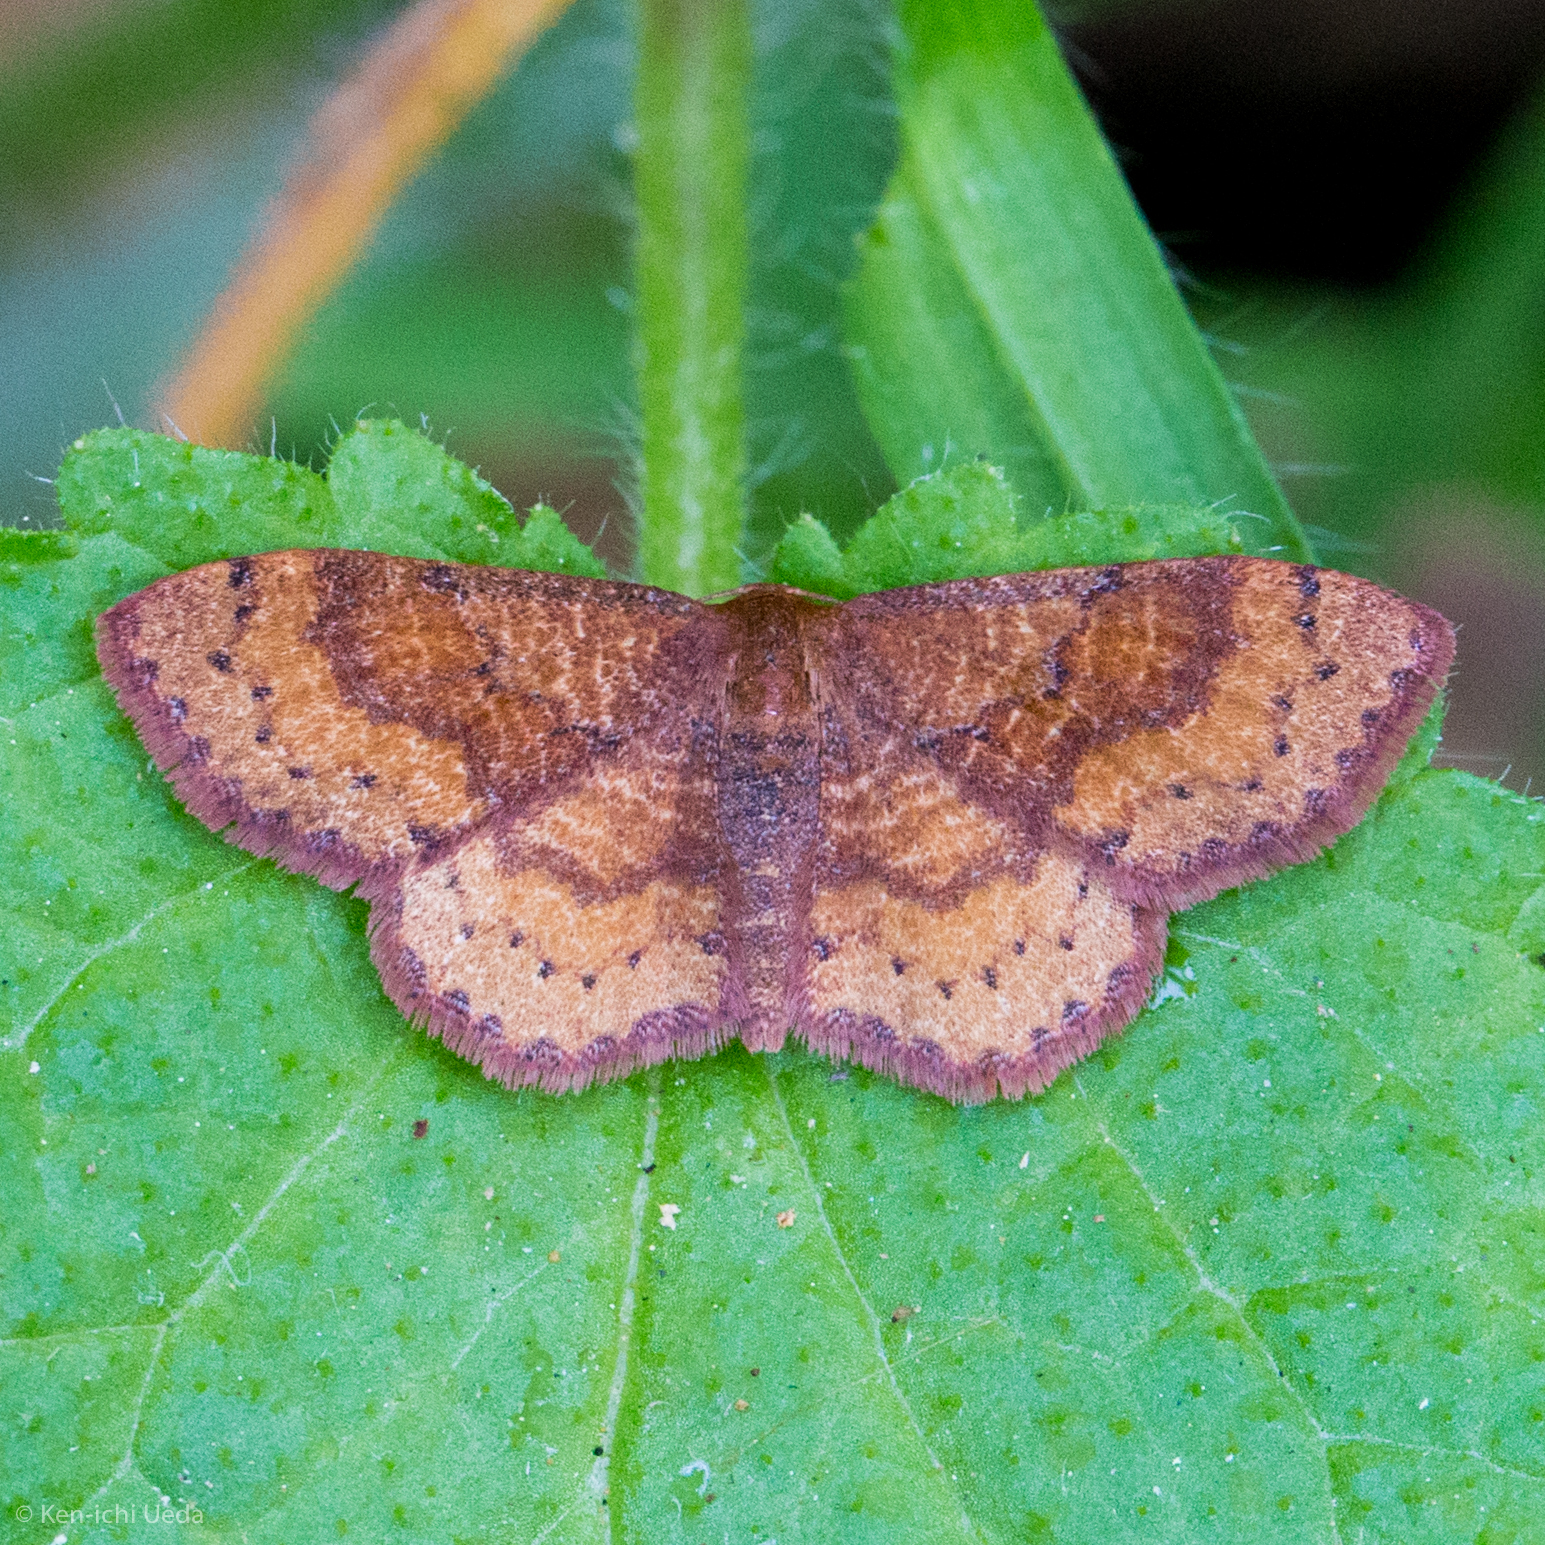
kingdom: Animalia
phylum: Arthropoda
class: Insecta
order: Lepidoptera
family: Geometridae
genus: Leptostales
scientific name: Leptostales rubromarginaria
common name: Dark-ribboned wave
